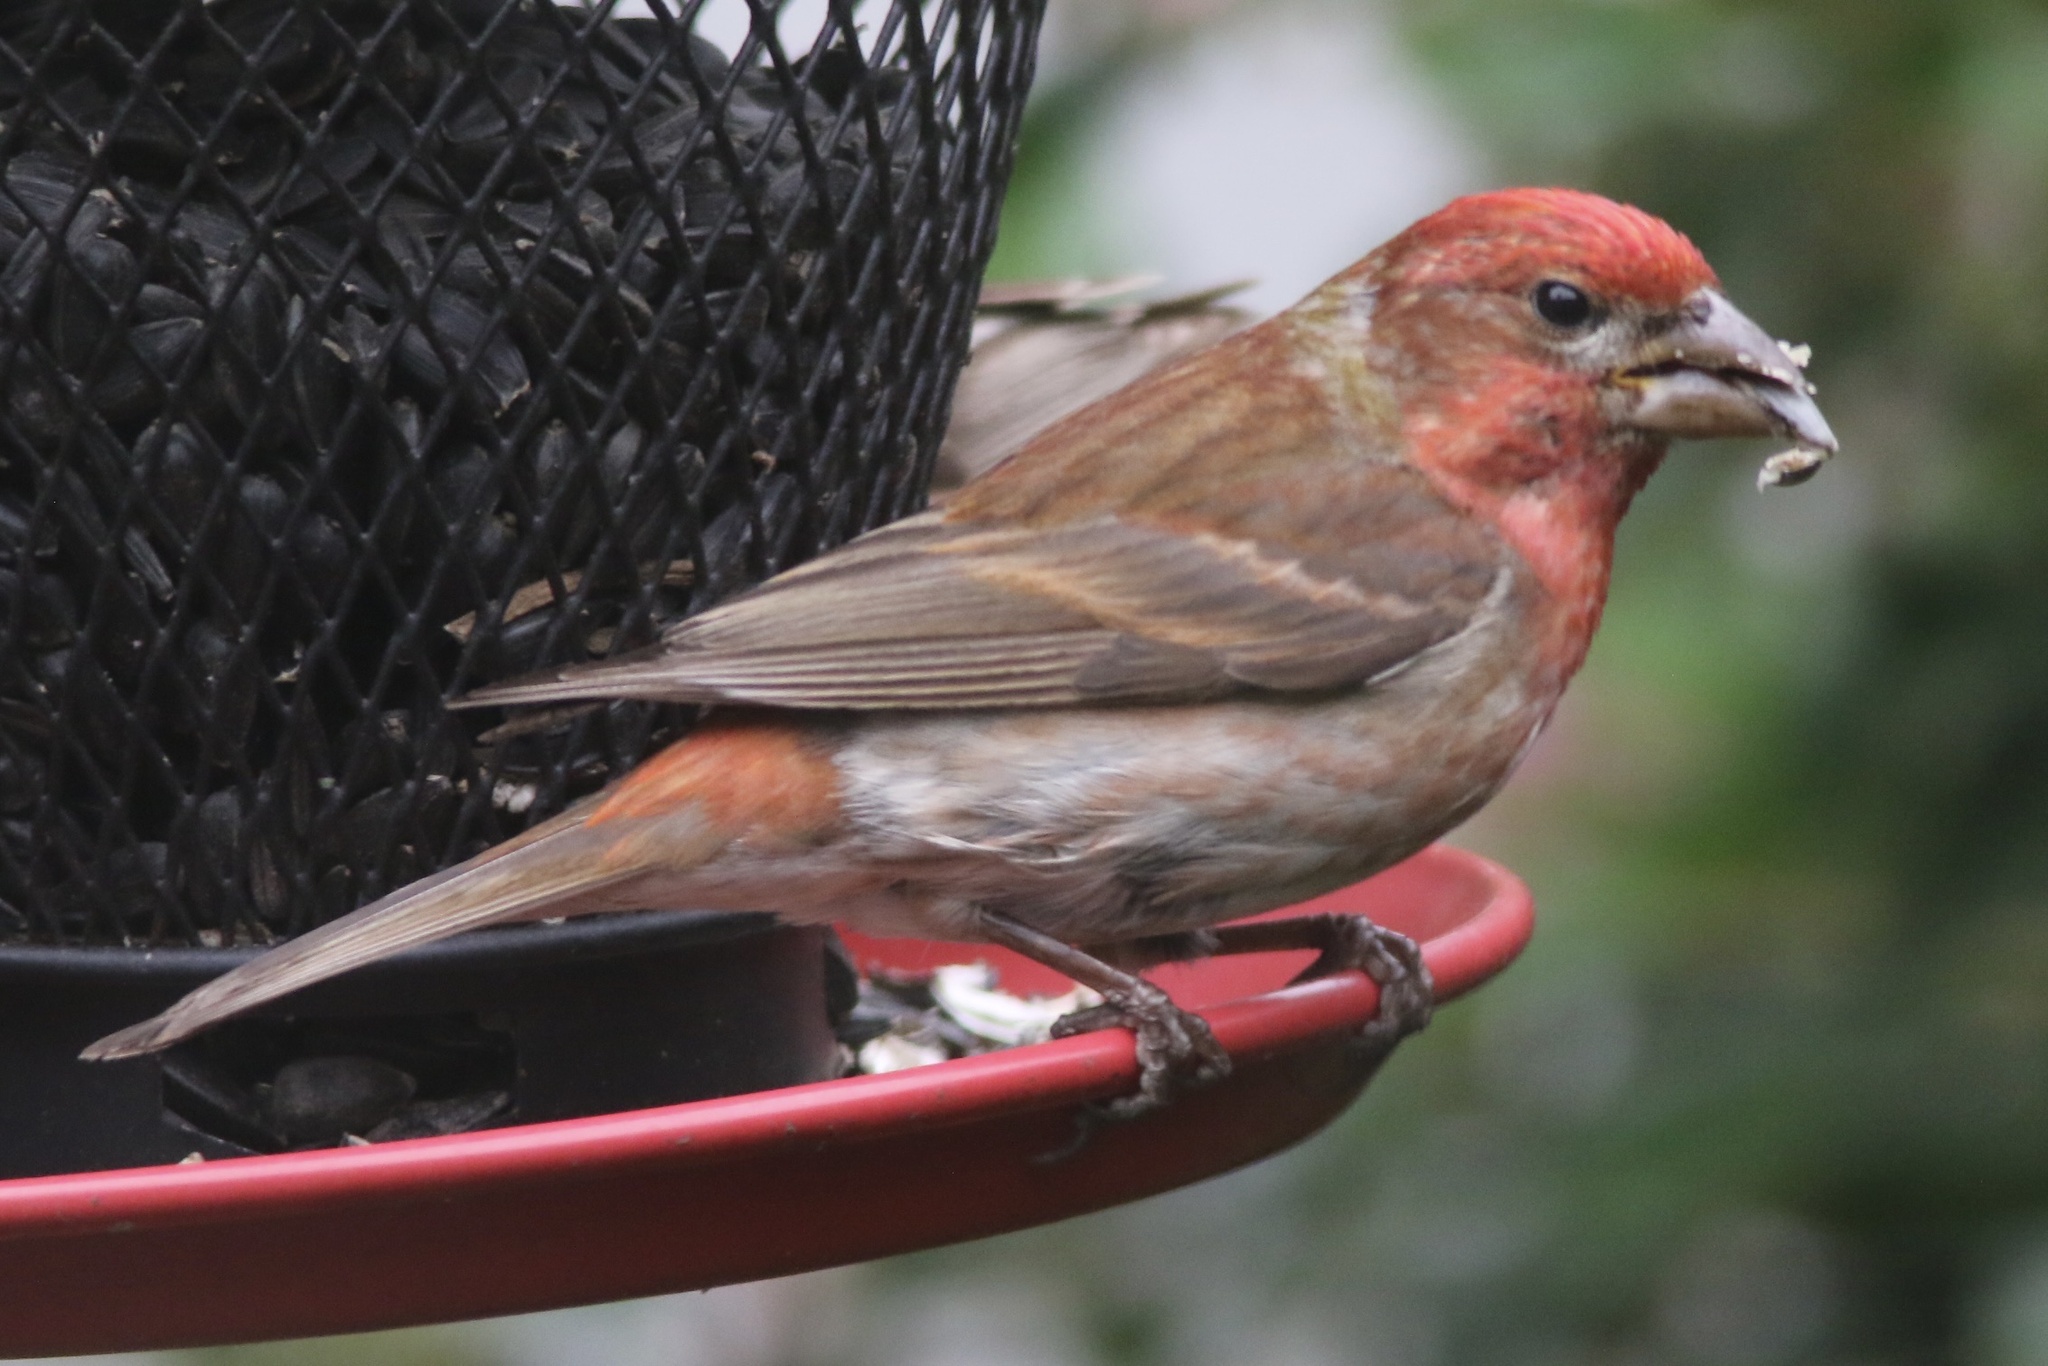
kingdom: Animalia
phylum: Chordata
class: Aves
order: Passeriformes
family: Fringillidae
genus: Haemorhous
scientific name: Haemorhous purpureus
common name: Purple finch
